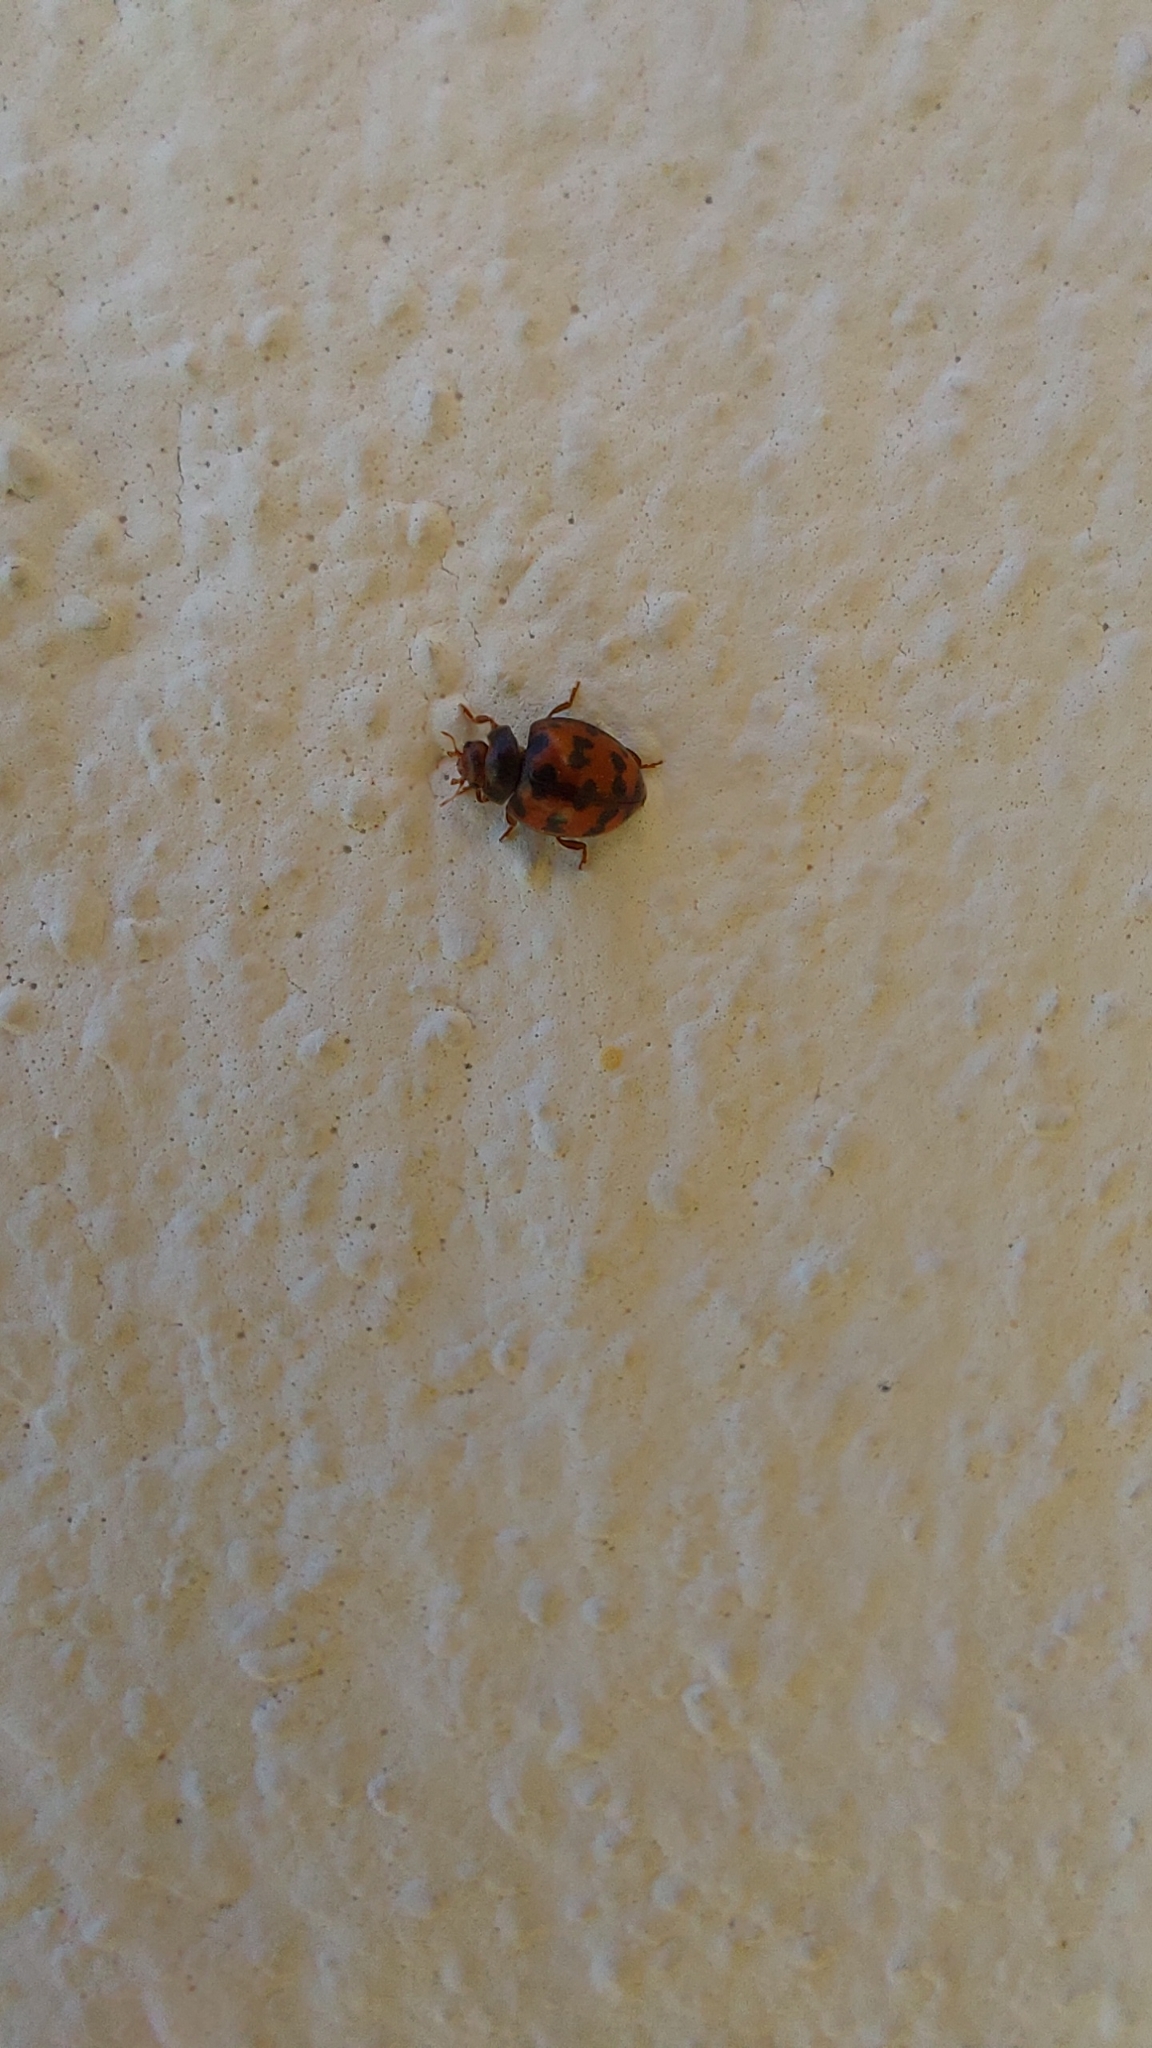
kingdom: Animalia
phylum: Arthropoda
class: Insecta
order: Coleoptera
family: Coccinellidae
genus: Subcoccinella
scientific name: Subcoccinella vigintiquatuorpunctata
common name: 24-spot ladybird
